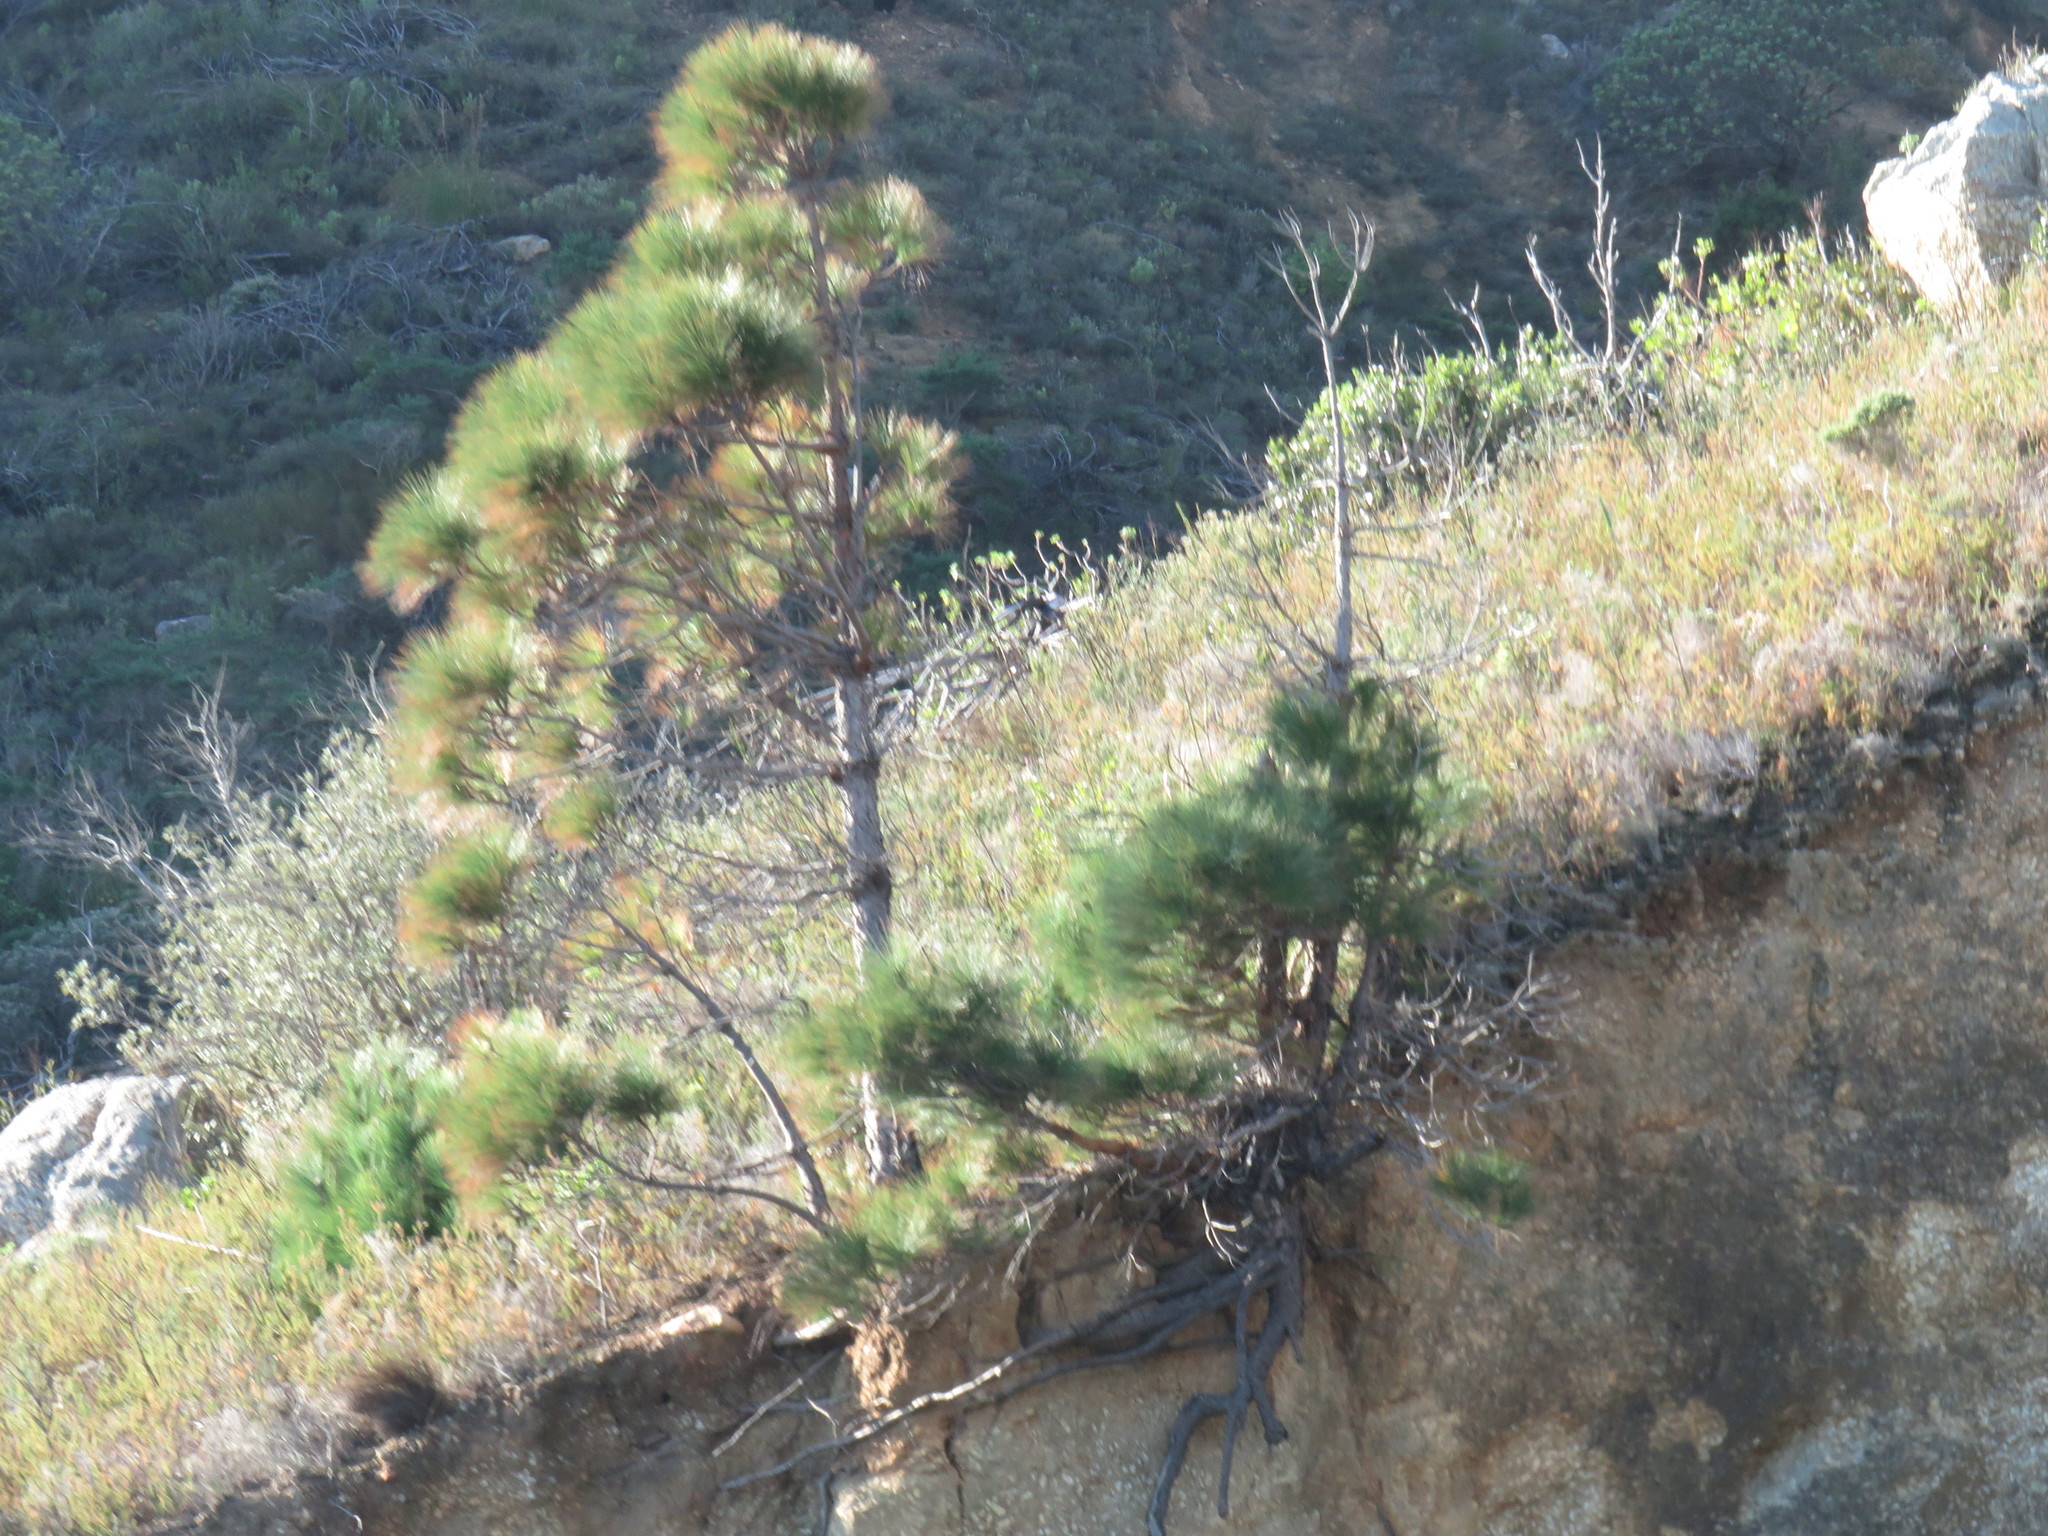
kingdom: Plantae
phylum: Tracheophyta
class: Pinopsida
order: Pinales
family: Pinaceae
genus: Pinus
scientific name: Pinus canariensis
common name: Canary islands pine
